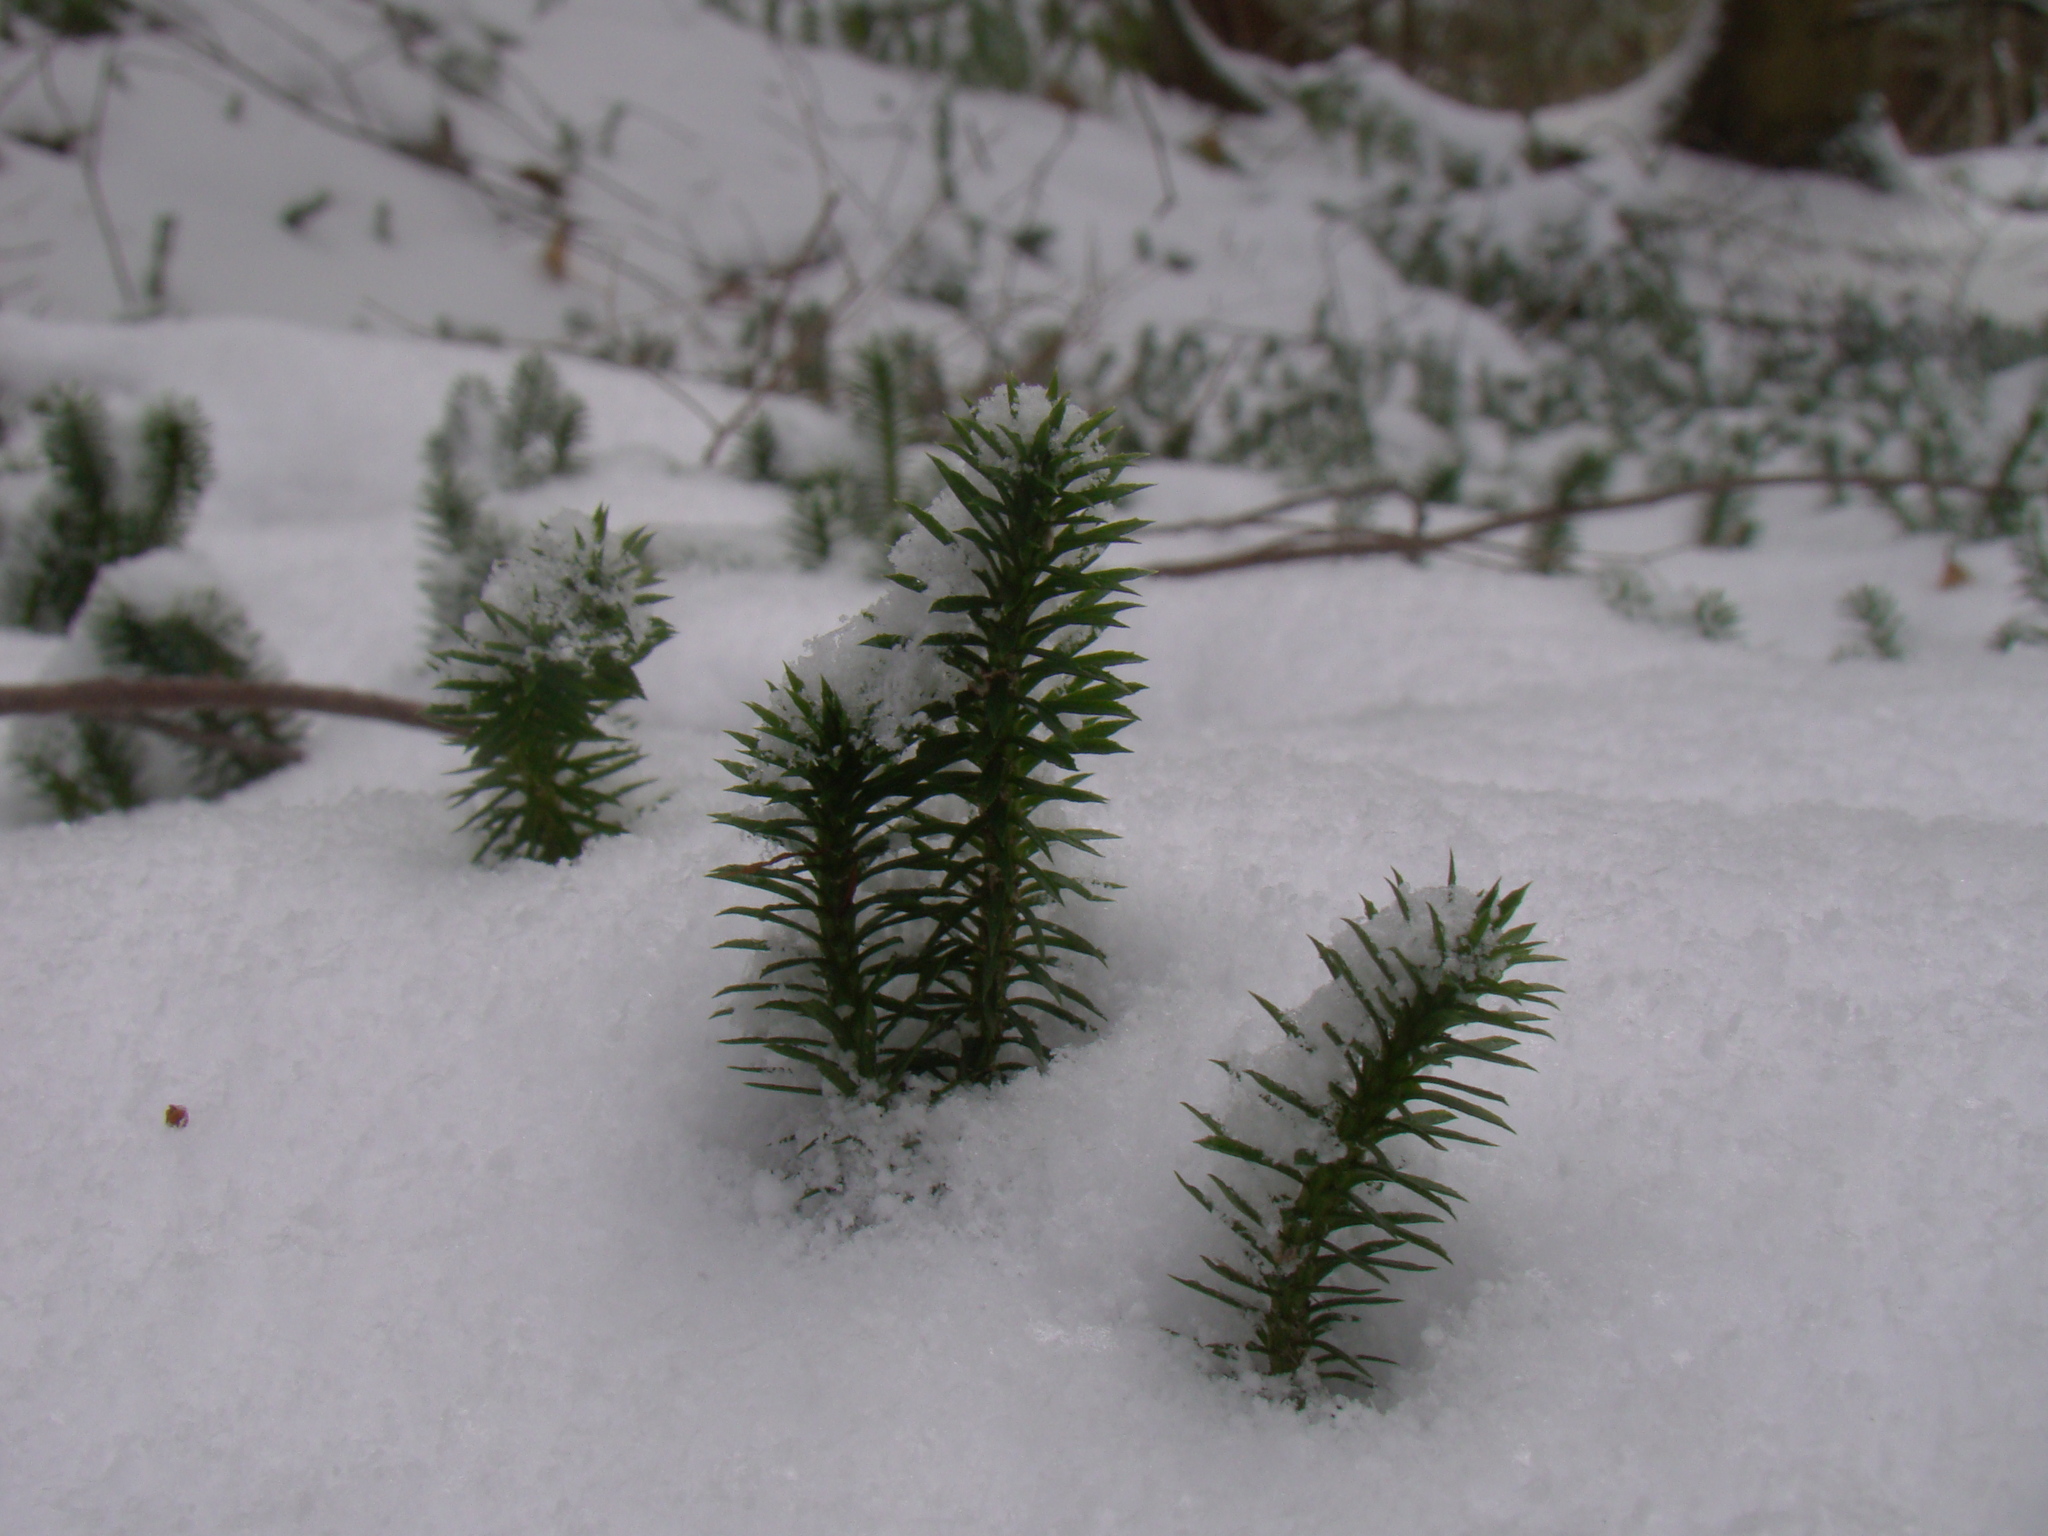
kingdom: Plantae
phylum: Tracheophyta
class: Lycopodiopsida
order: Lycopodiales
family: Lycopodiaceae
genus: Huperzia
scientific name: Huperzia lucidula
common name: Shining clubmoss
